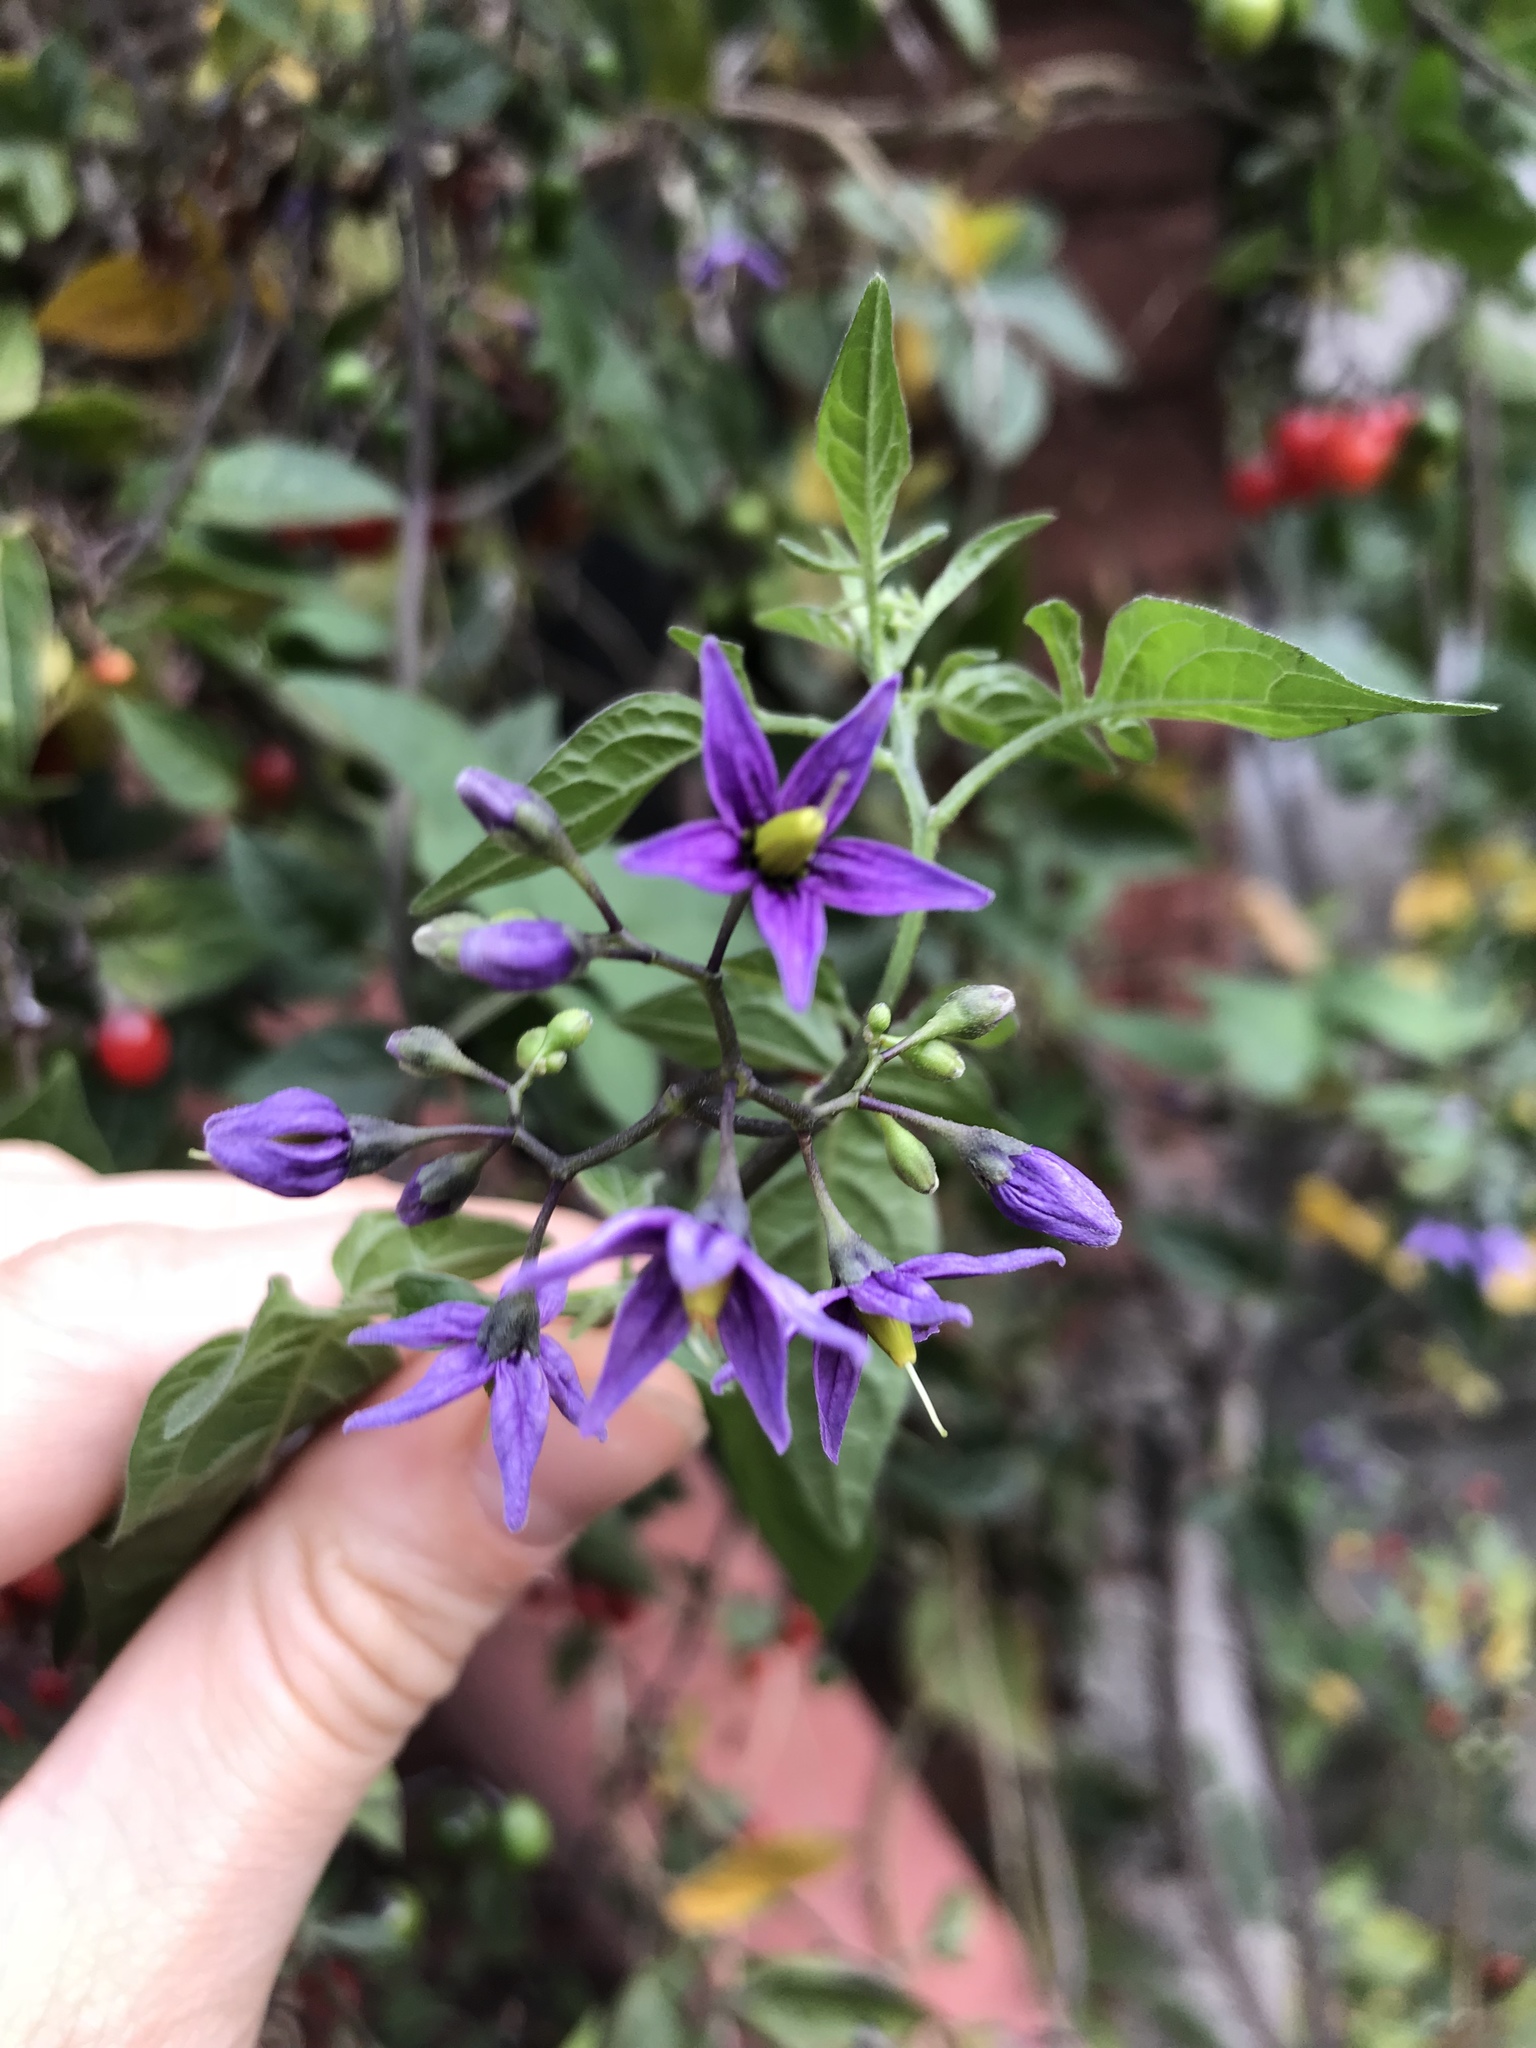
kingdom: Plantae
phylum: Tracheophyta
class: Magnoliopsida
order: Solanales
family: Solanaceae
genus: Solanum
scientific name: Solanum dulcamara
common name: Climbing nightshade
